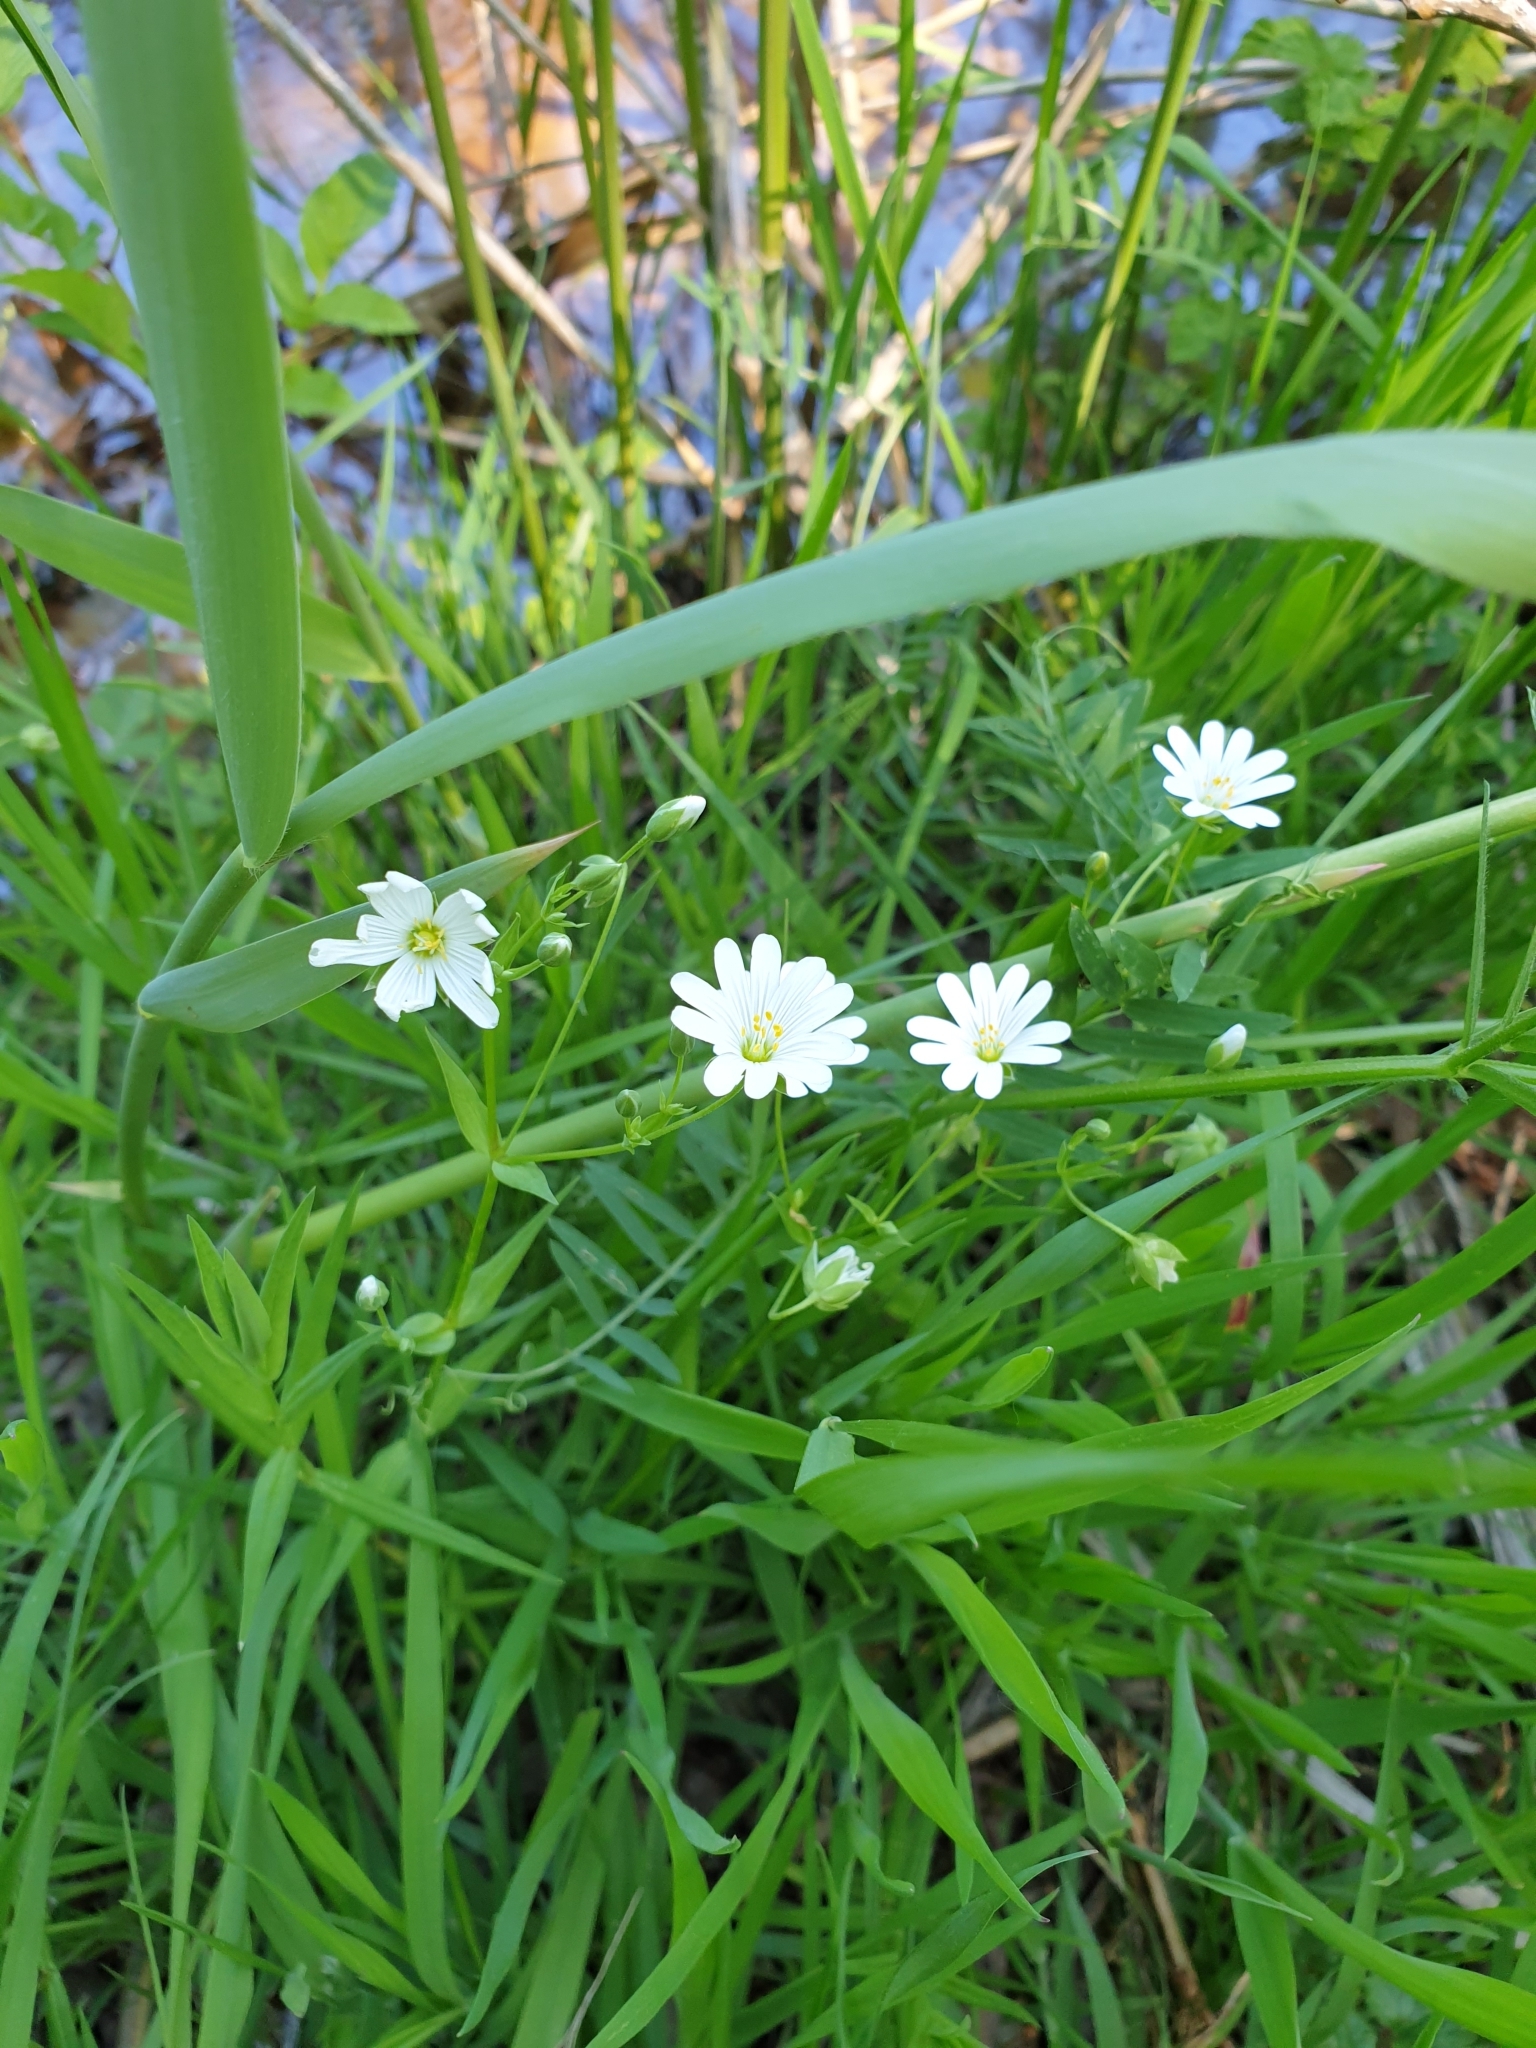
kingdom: Plantae
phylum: Tracheophyta
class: Magnoliopsida
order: Caryophyllales
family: Caryophyllaceae
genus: Rabelera
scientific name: Rabelera holostea
